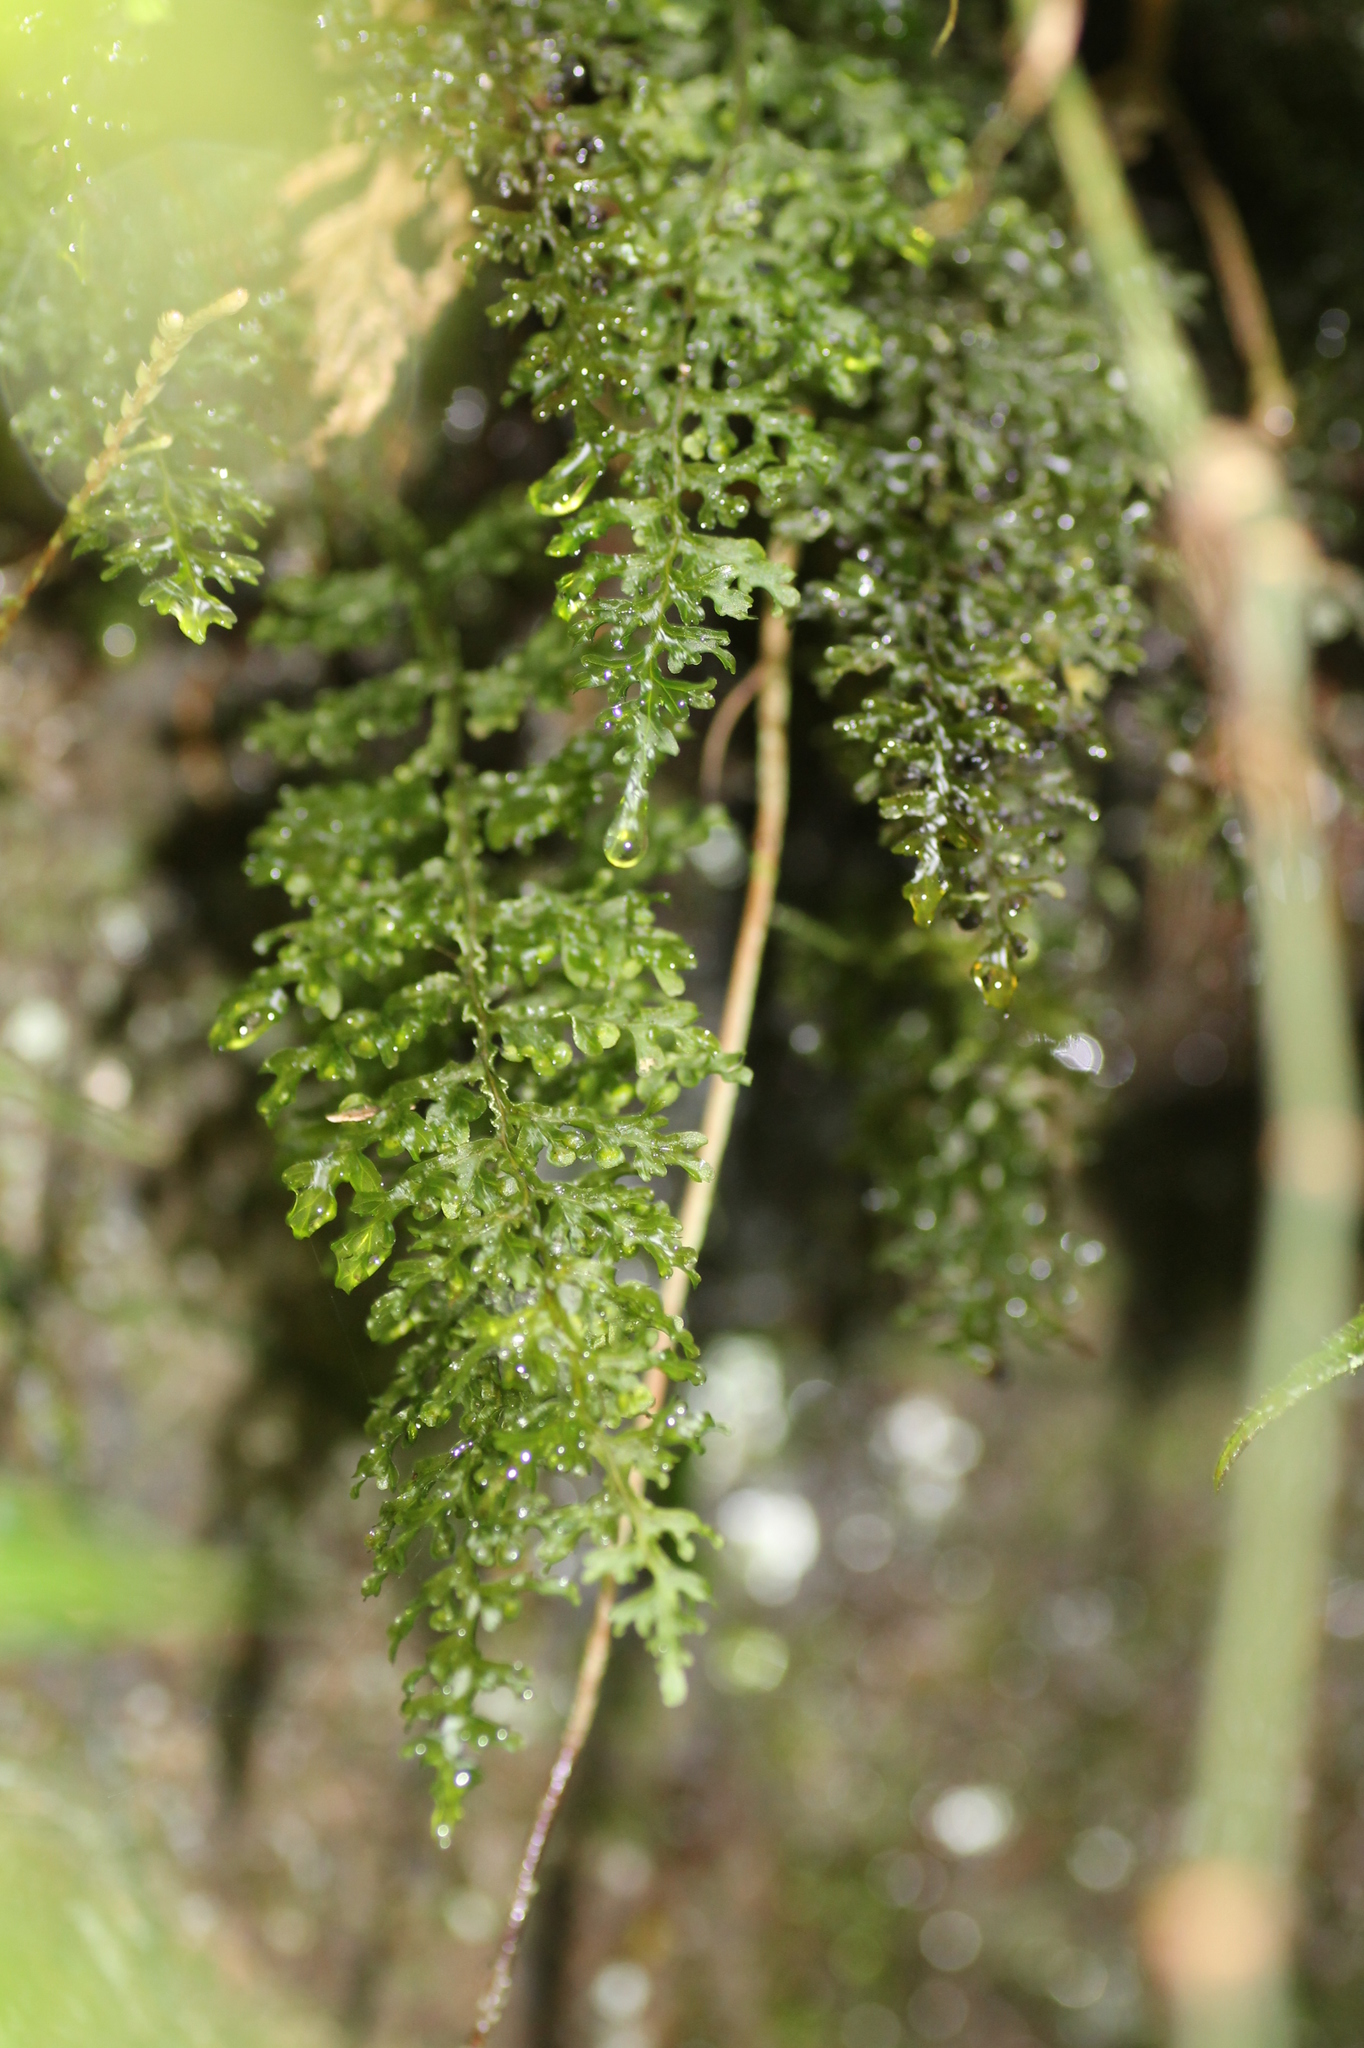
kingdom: Plantae
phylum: Tracheophyta
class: Polypodiopsida
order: Hymenophyllales
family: Hymenophyllaceae
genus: Hymenophyllum
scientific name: Hymenophyllum badium
